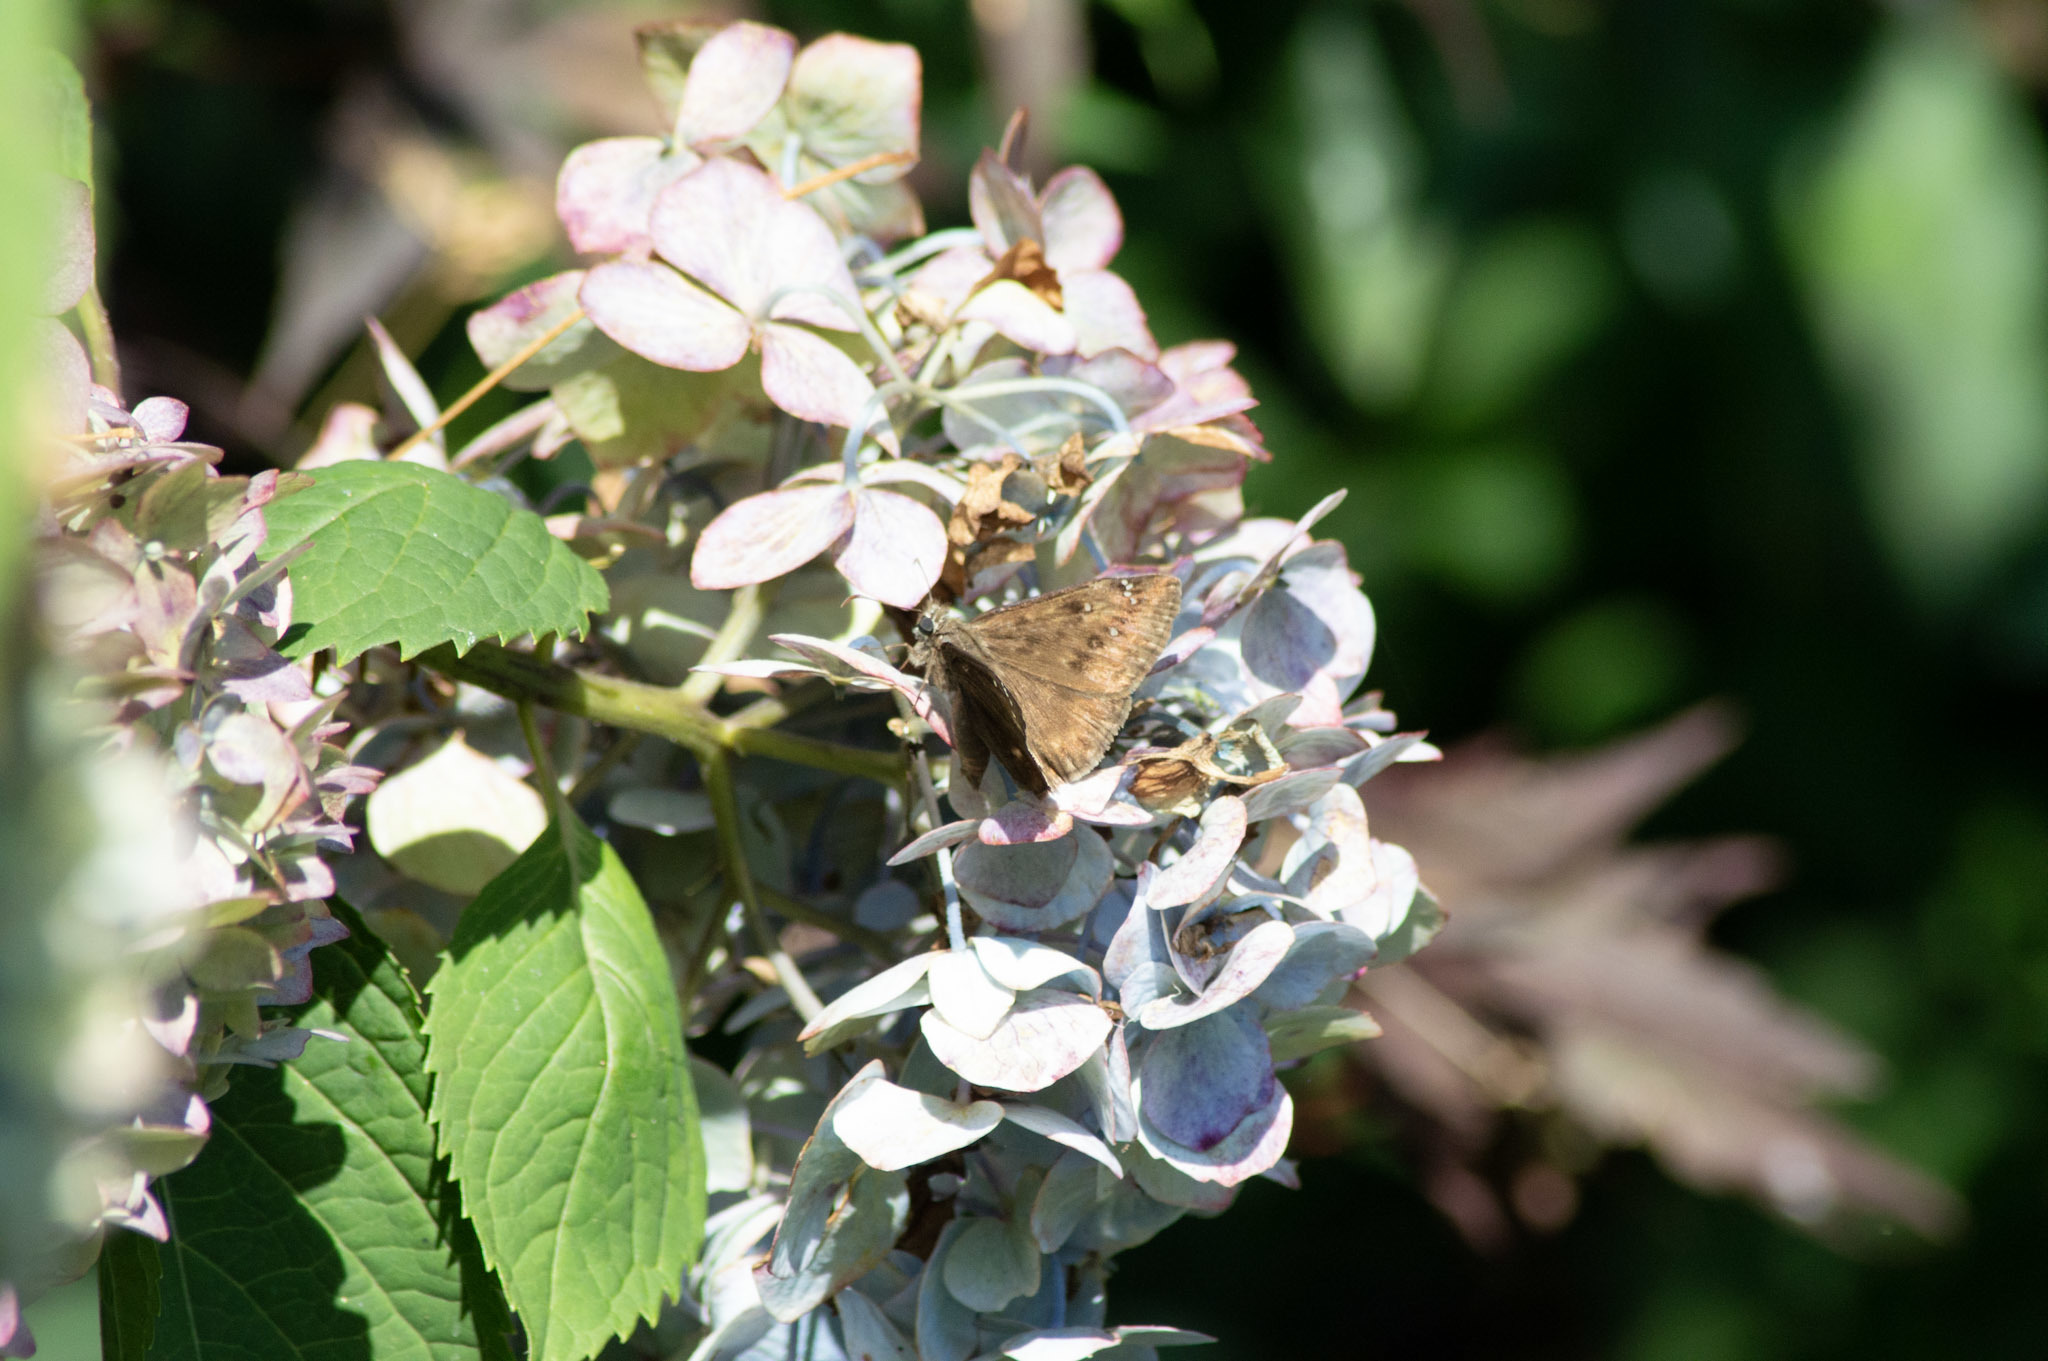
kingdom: Animalia
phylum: Arthropoda
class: Insecta
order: Lepidoptera
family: Hesperiidae
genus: Erynnis
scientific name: Erynnis horatius
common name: Horace's duskywing
